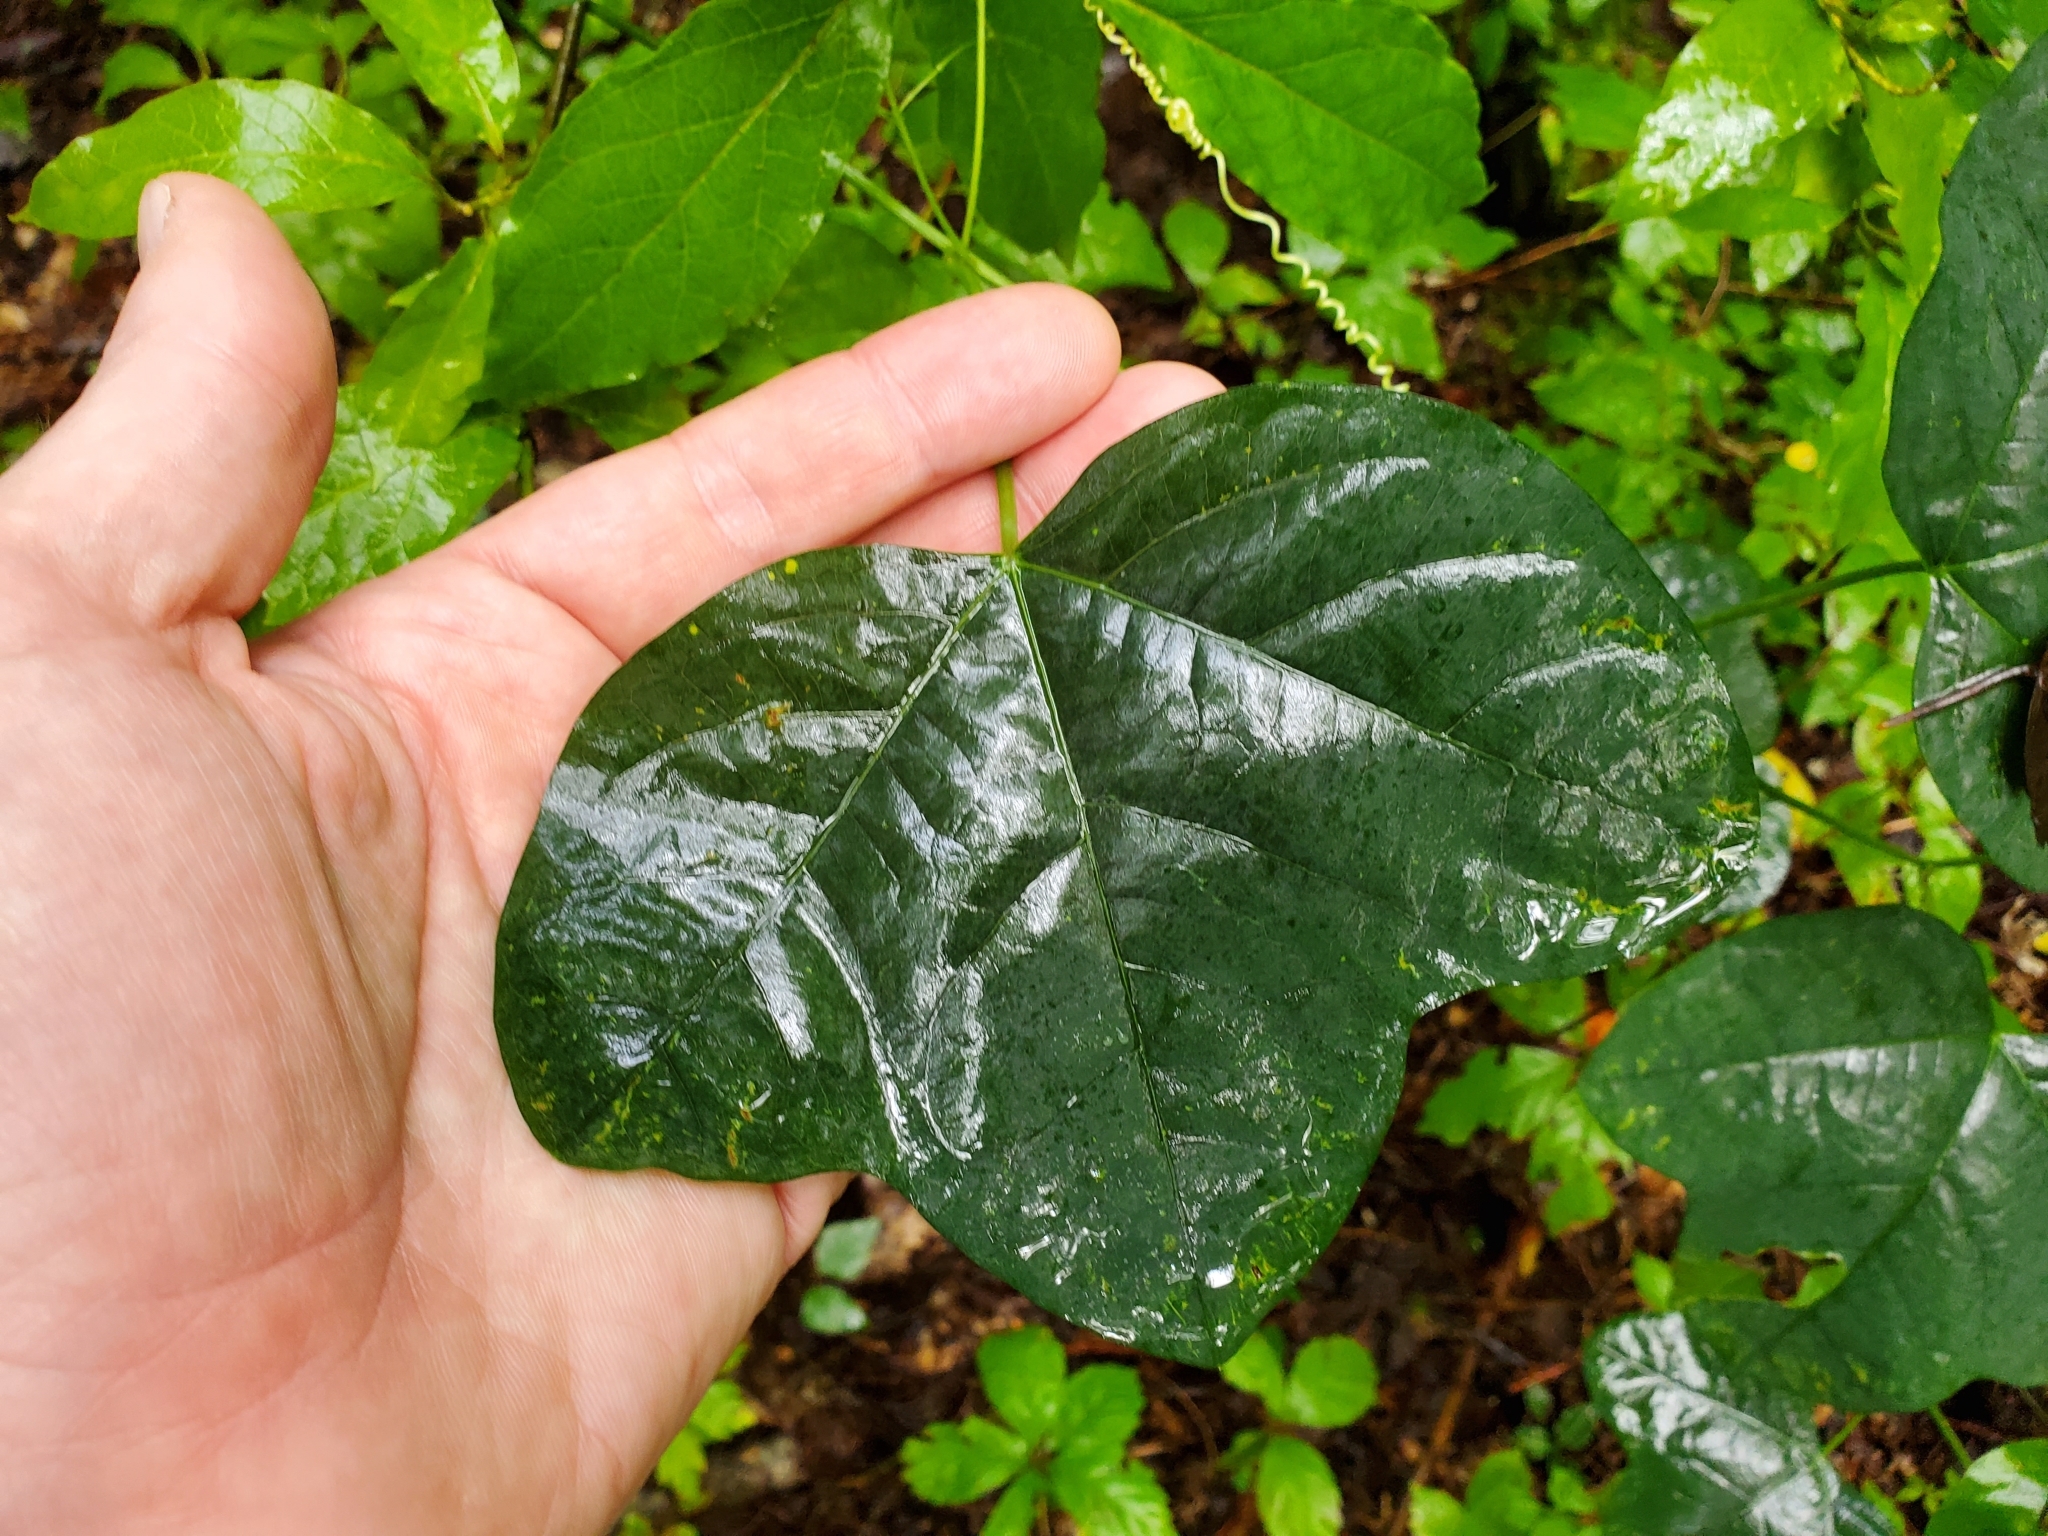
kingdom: Plantae
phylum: Tracheophyta
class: Magnoliopsida
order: Malpighiales
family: Passifloraceae
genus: Passiflora
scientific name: Passiflora lutea
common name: Yellow passionflower
